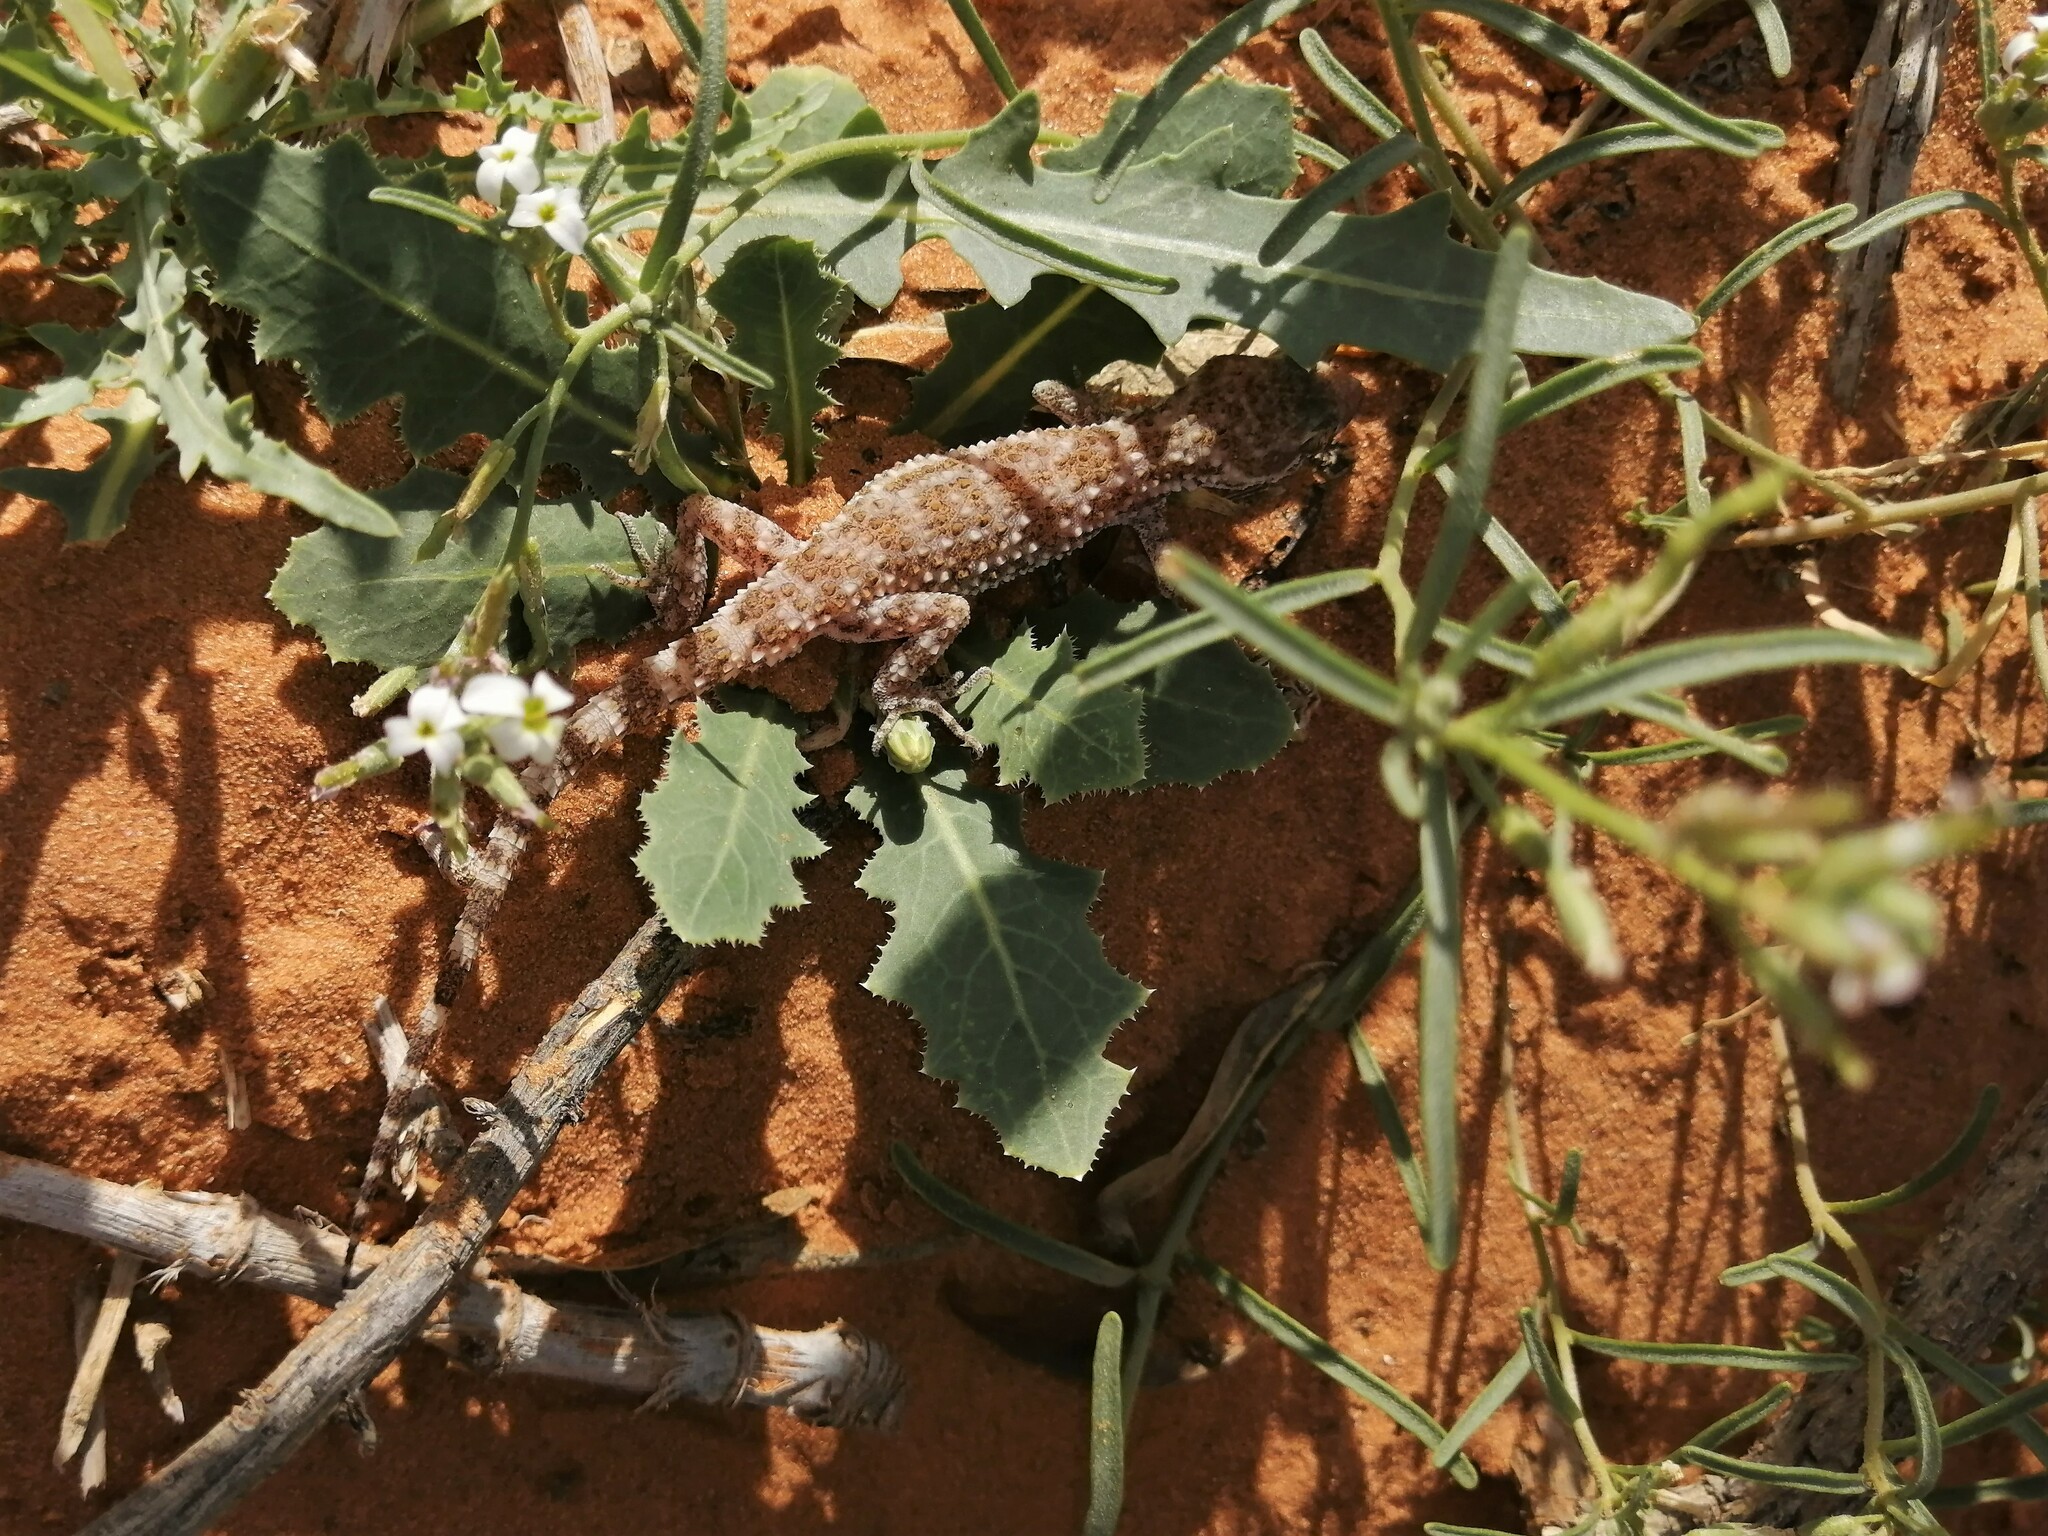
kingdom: Animalia
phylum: Chordata
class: Squamata
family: Gekkonidae
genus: Bunopus
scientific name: Bunopus tuberculatus
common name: Southern tuberculated gecko
